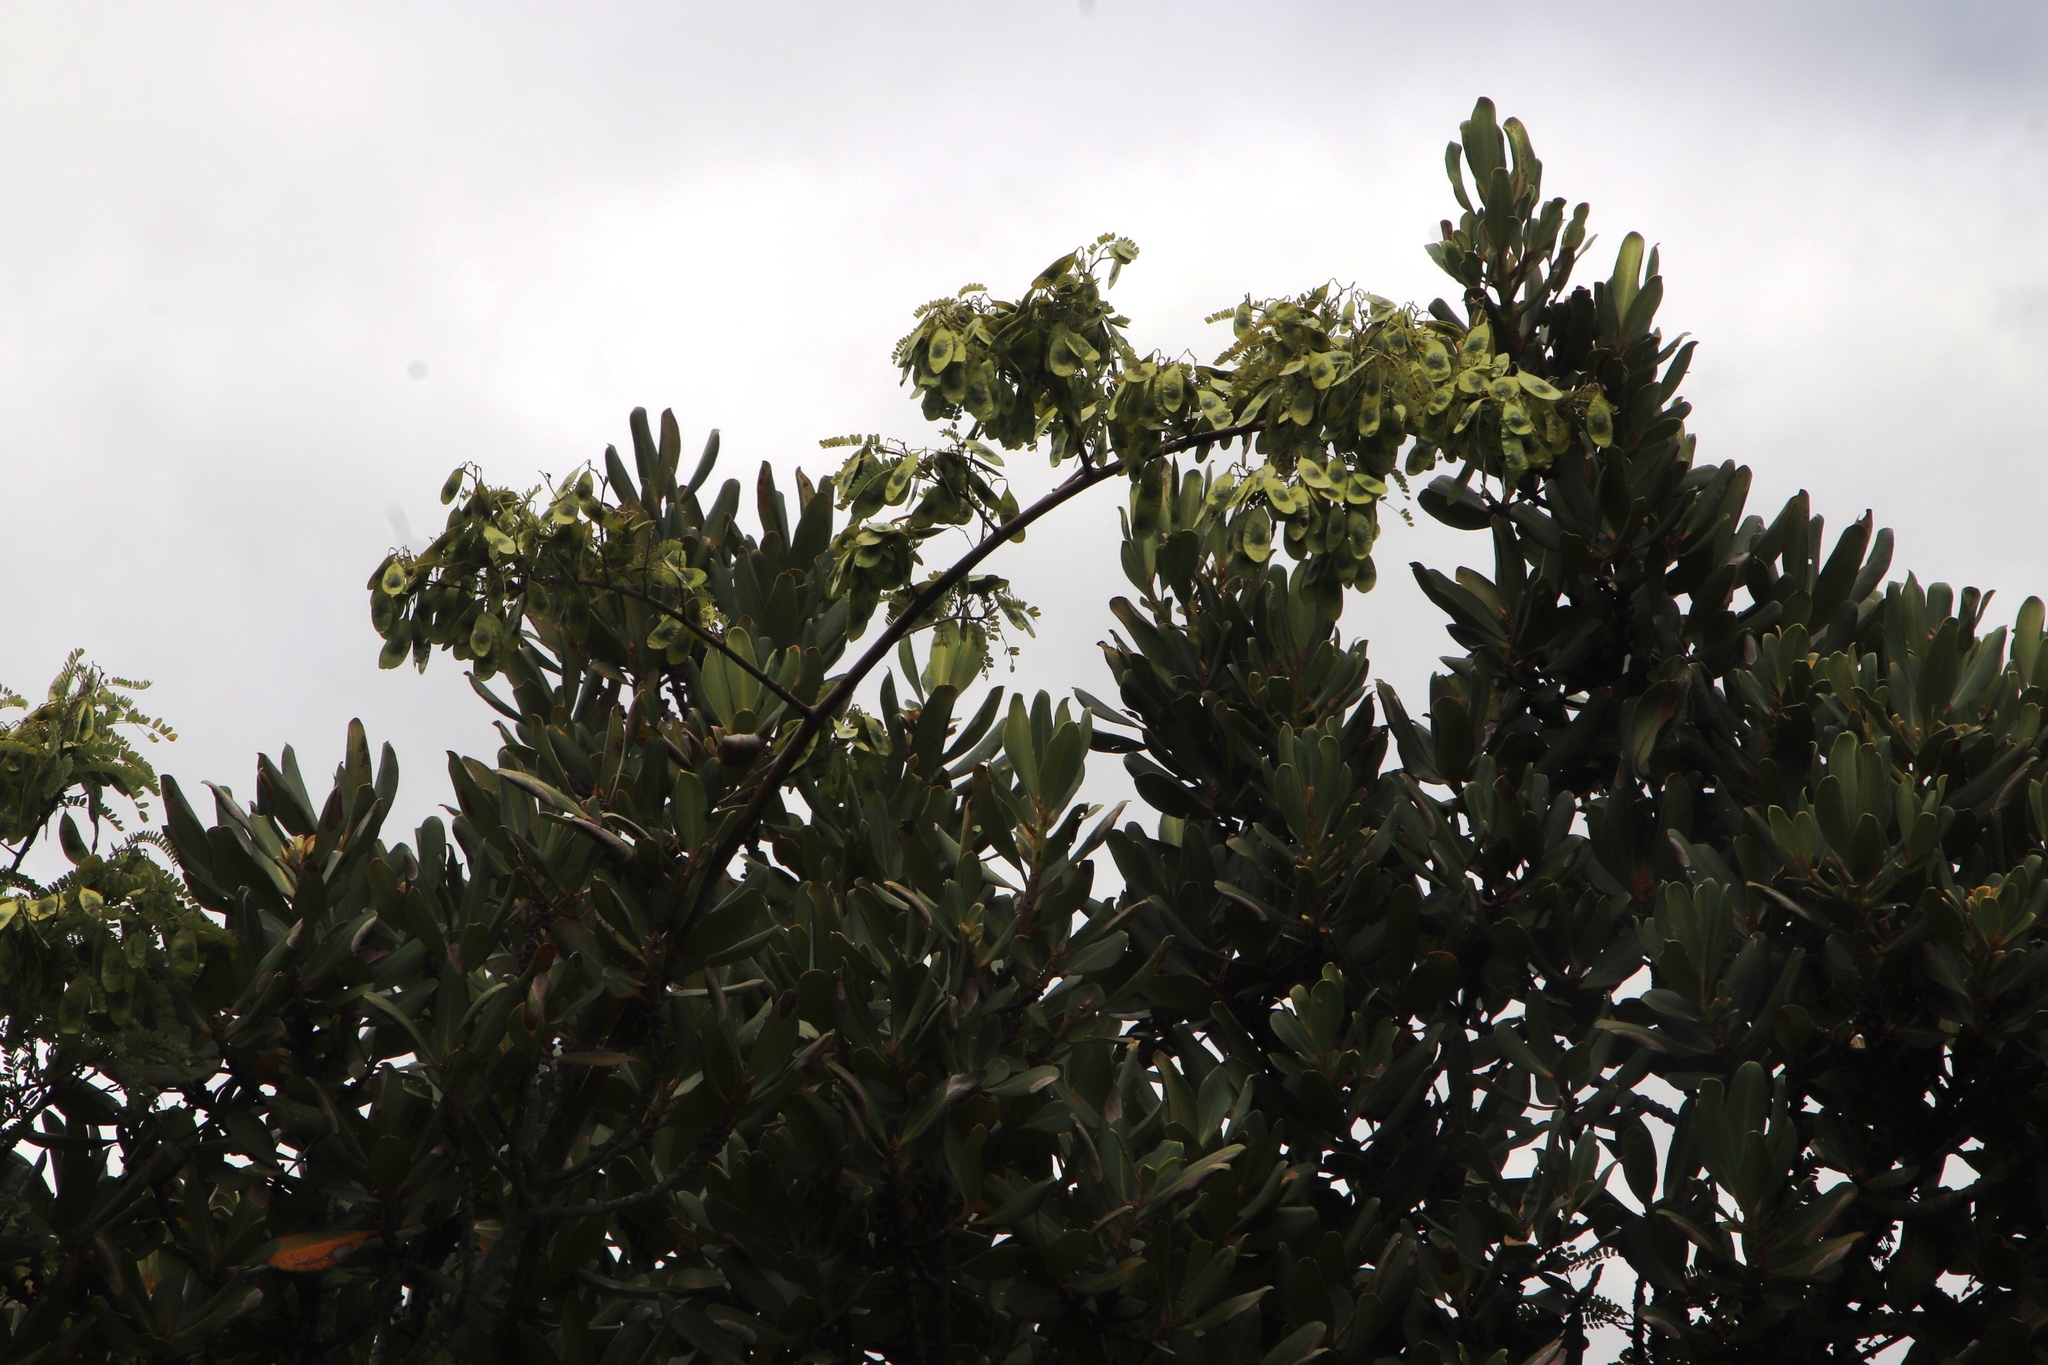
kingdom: Plantae
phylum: Tracheophyta
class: Magnoliopsida
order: Fabales
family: Fabaceae
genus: Dalbergia
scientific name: Dalbergia armata
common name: Hluhluwe climber
